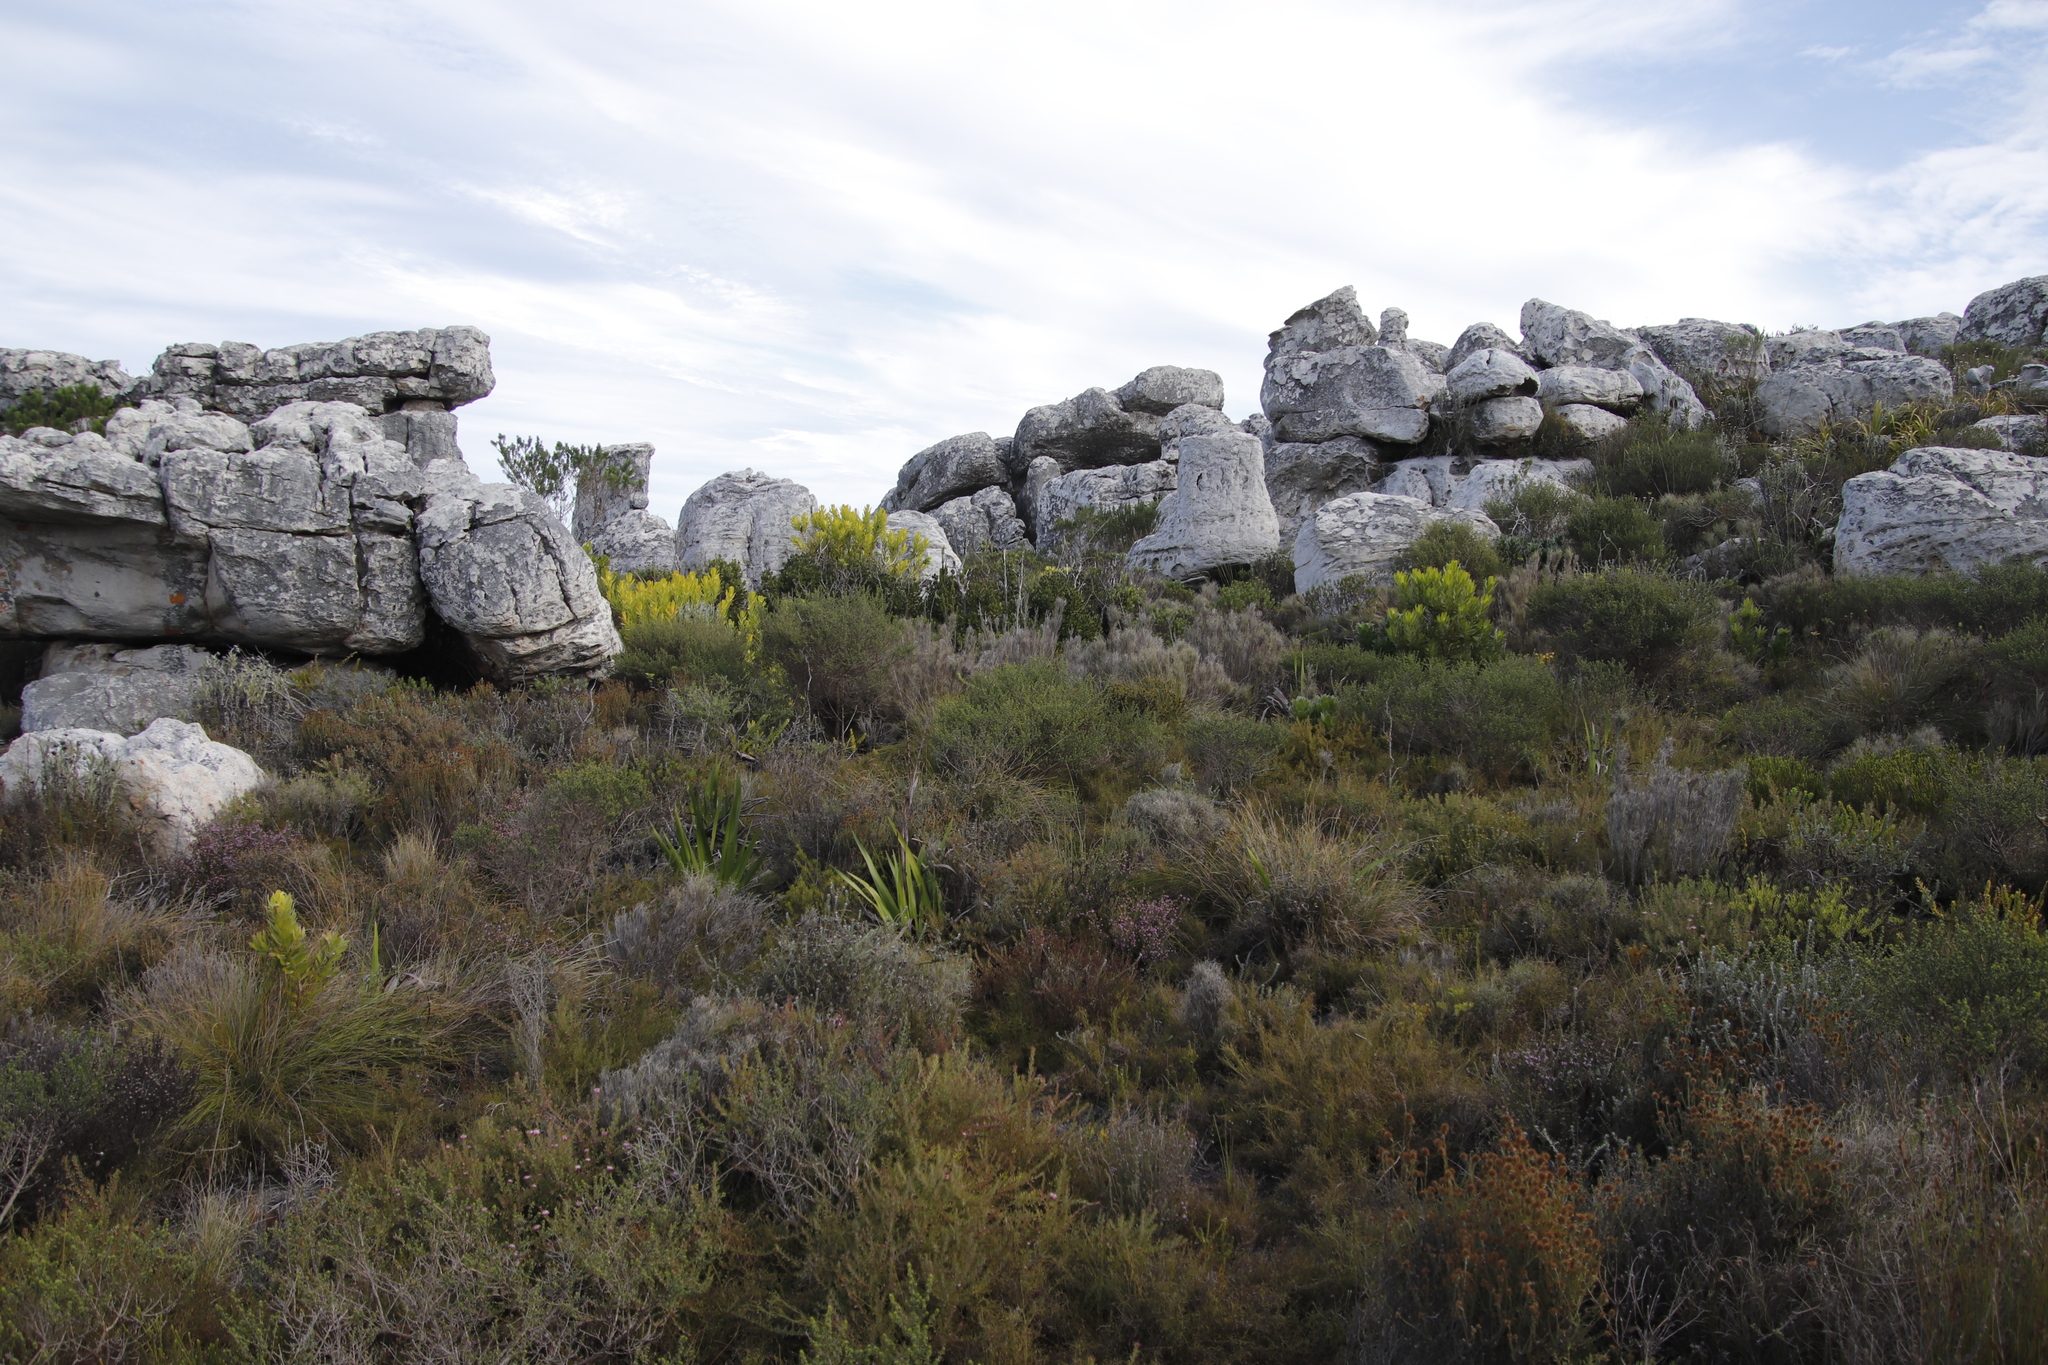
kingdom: Plantae
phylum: Tracheophyta
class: Magnoliopsida
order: Proteales
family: Proteaceae
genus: Diastella
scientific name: Diastella divaricata
